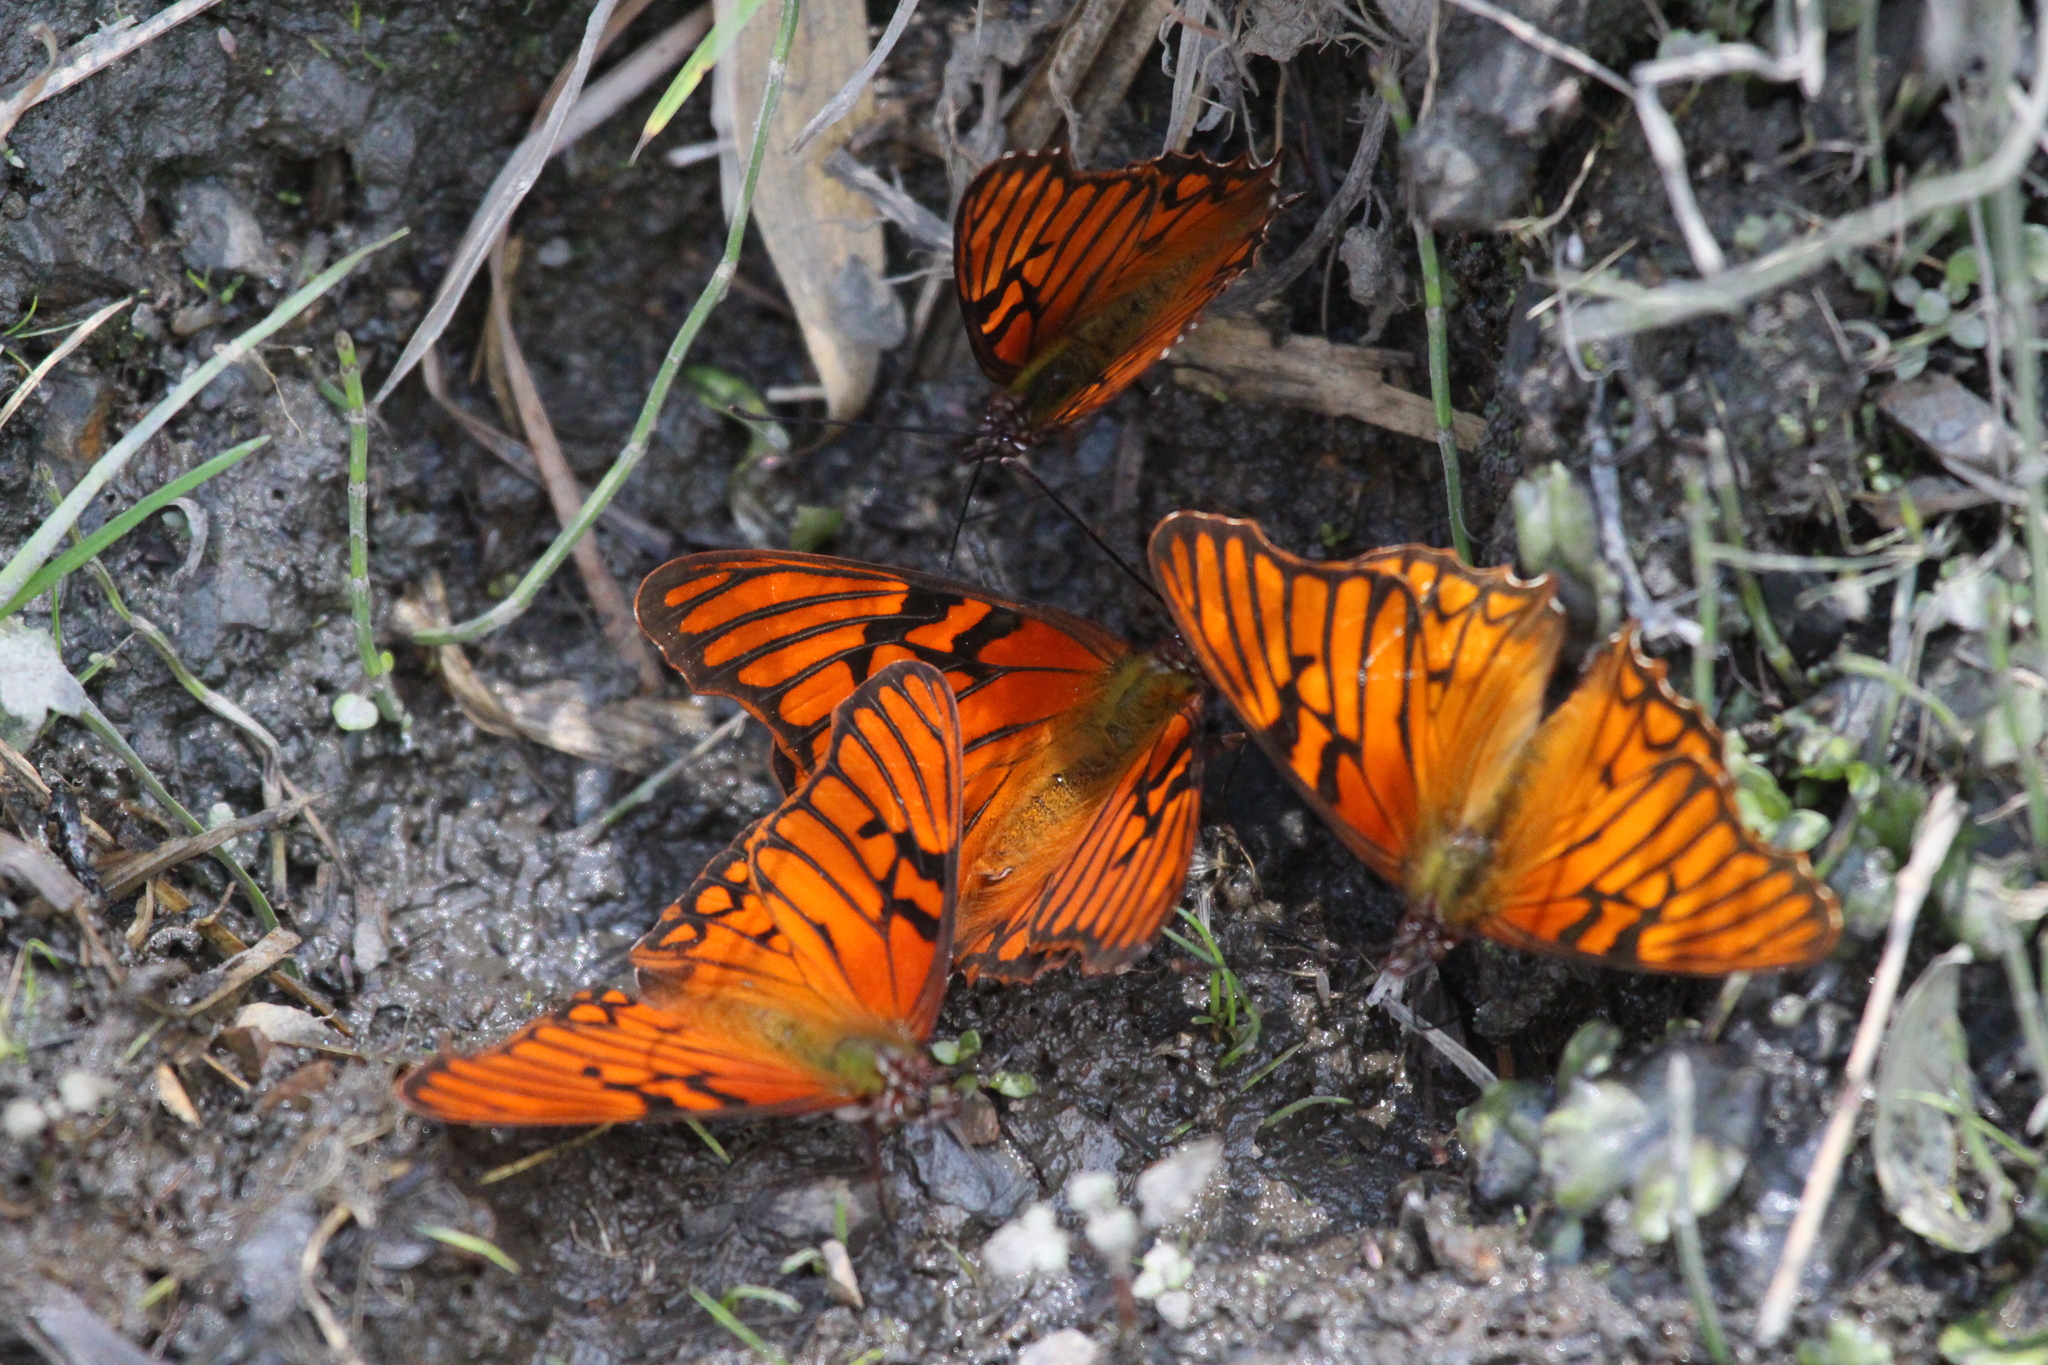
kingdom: Animalia
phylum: Arthropoda
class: Insecta
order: Lepidoptera
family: Nymphalidae
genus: Dione
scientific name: Dione glycera
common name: Andean silverspot
